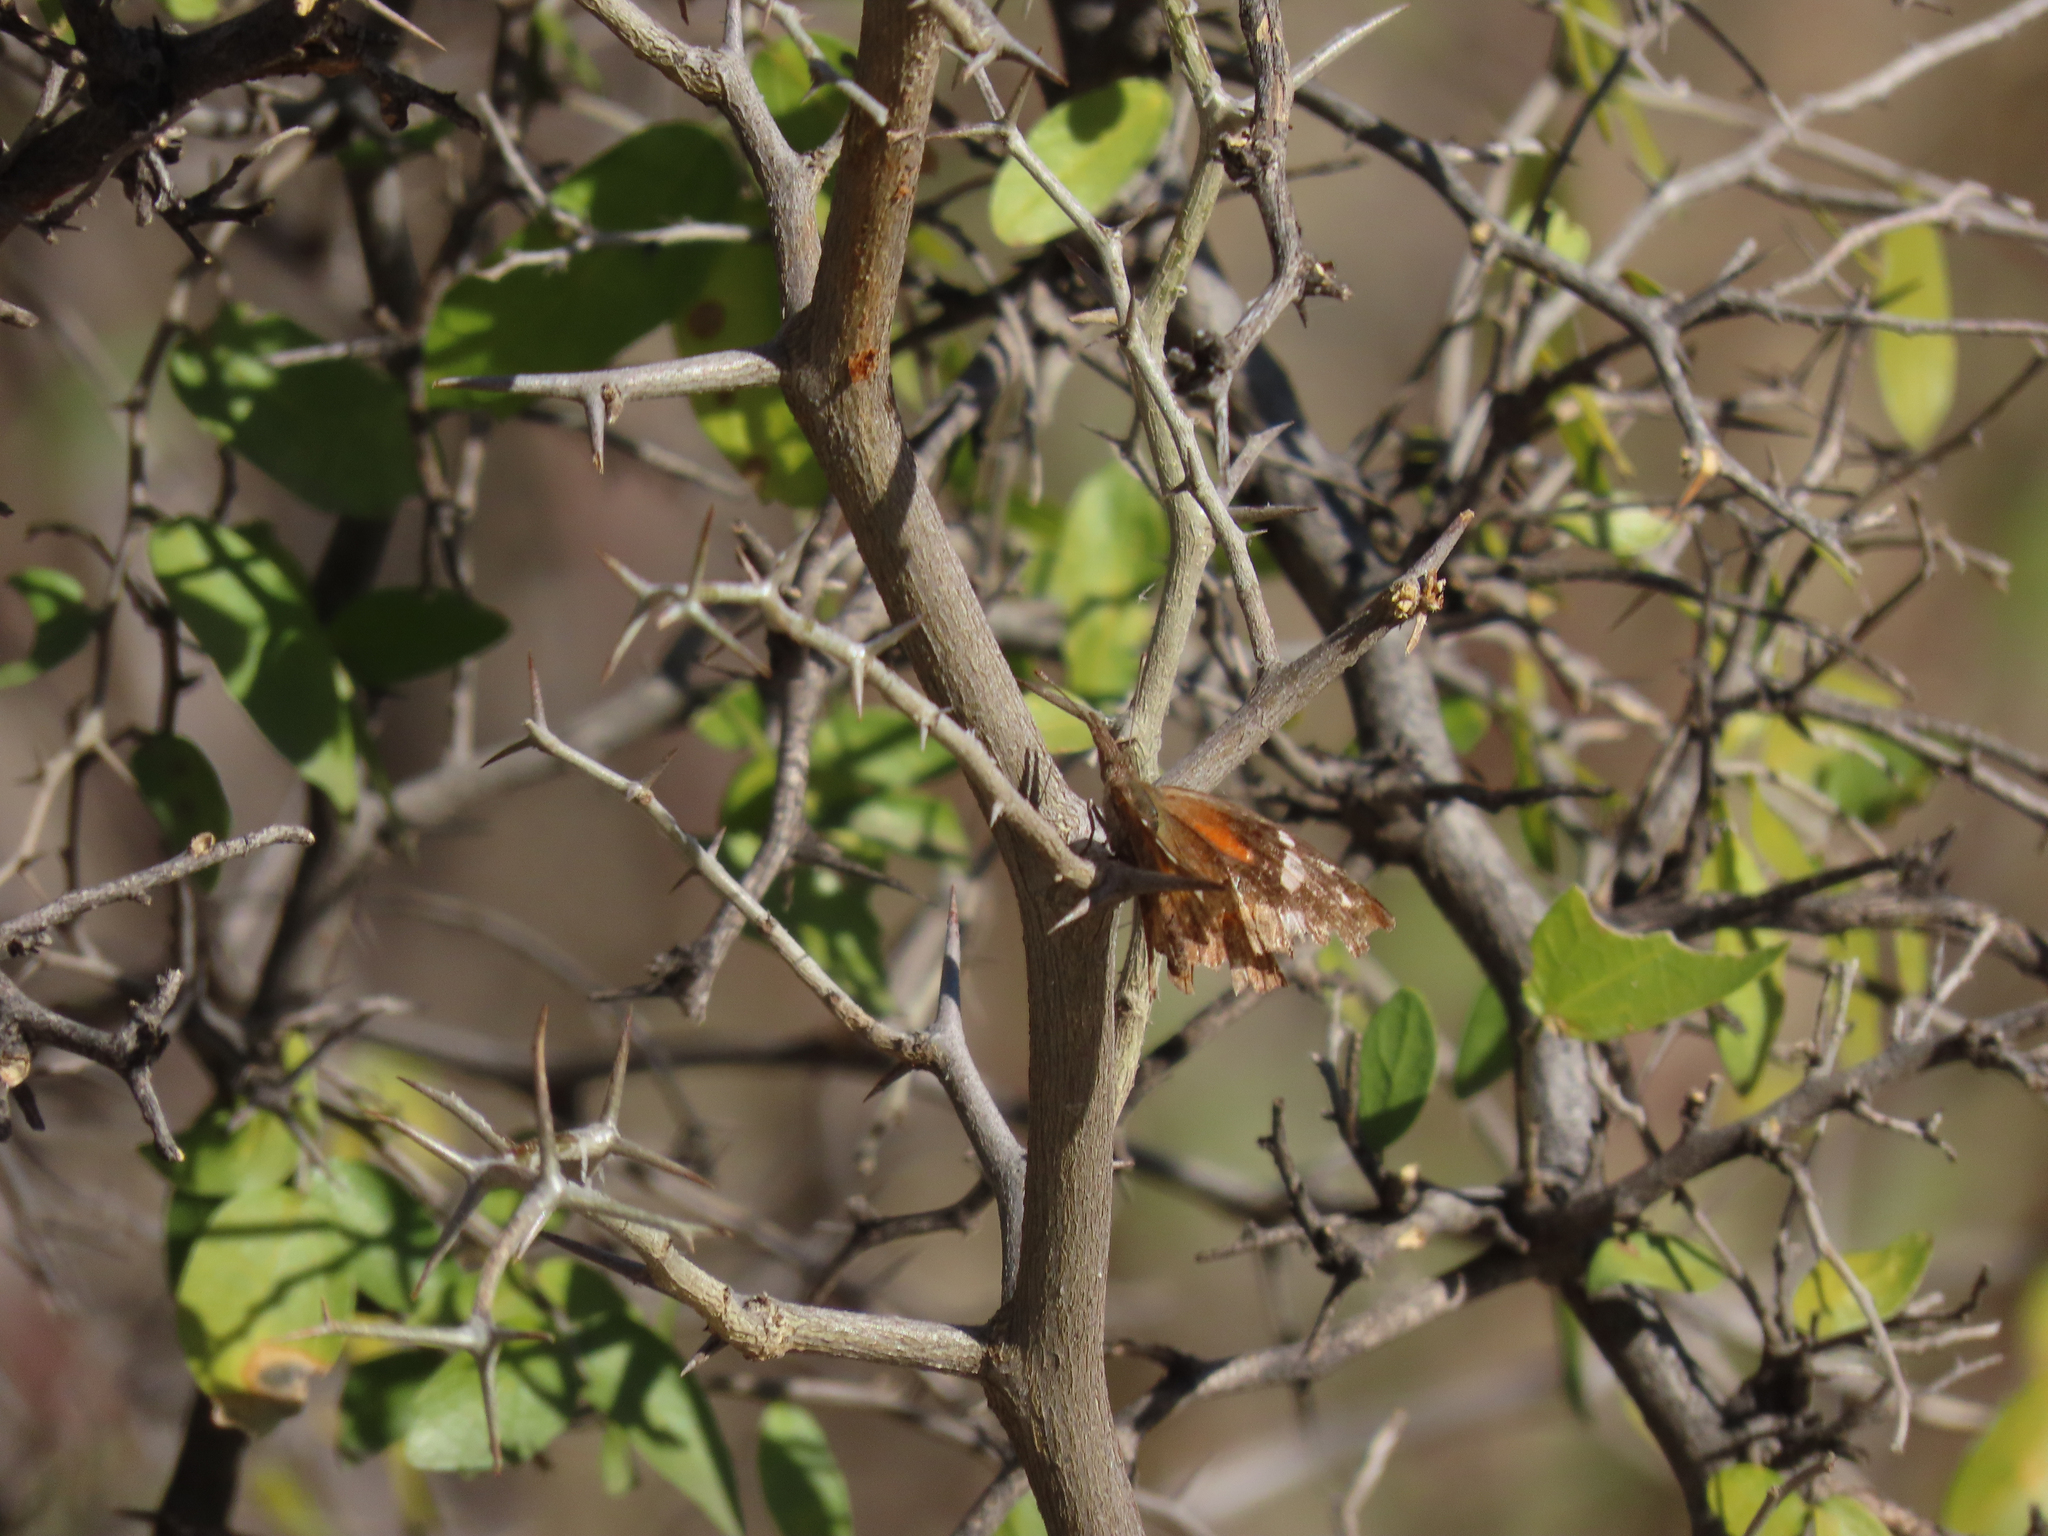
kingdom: Animalia
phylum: Arthropoda
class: Insecta
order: Lepidoptera
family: Nymphalidae
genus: Libytheana
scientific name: Libytheana carinenta
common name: American snout
